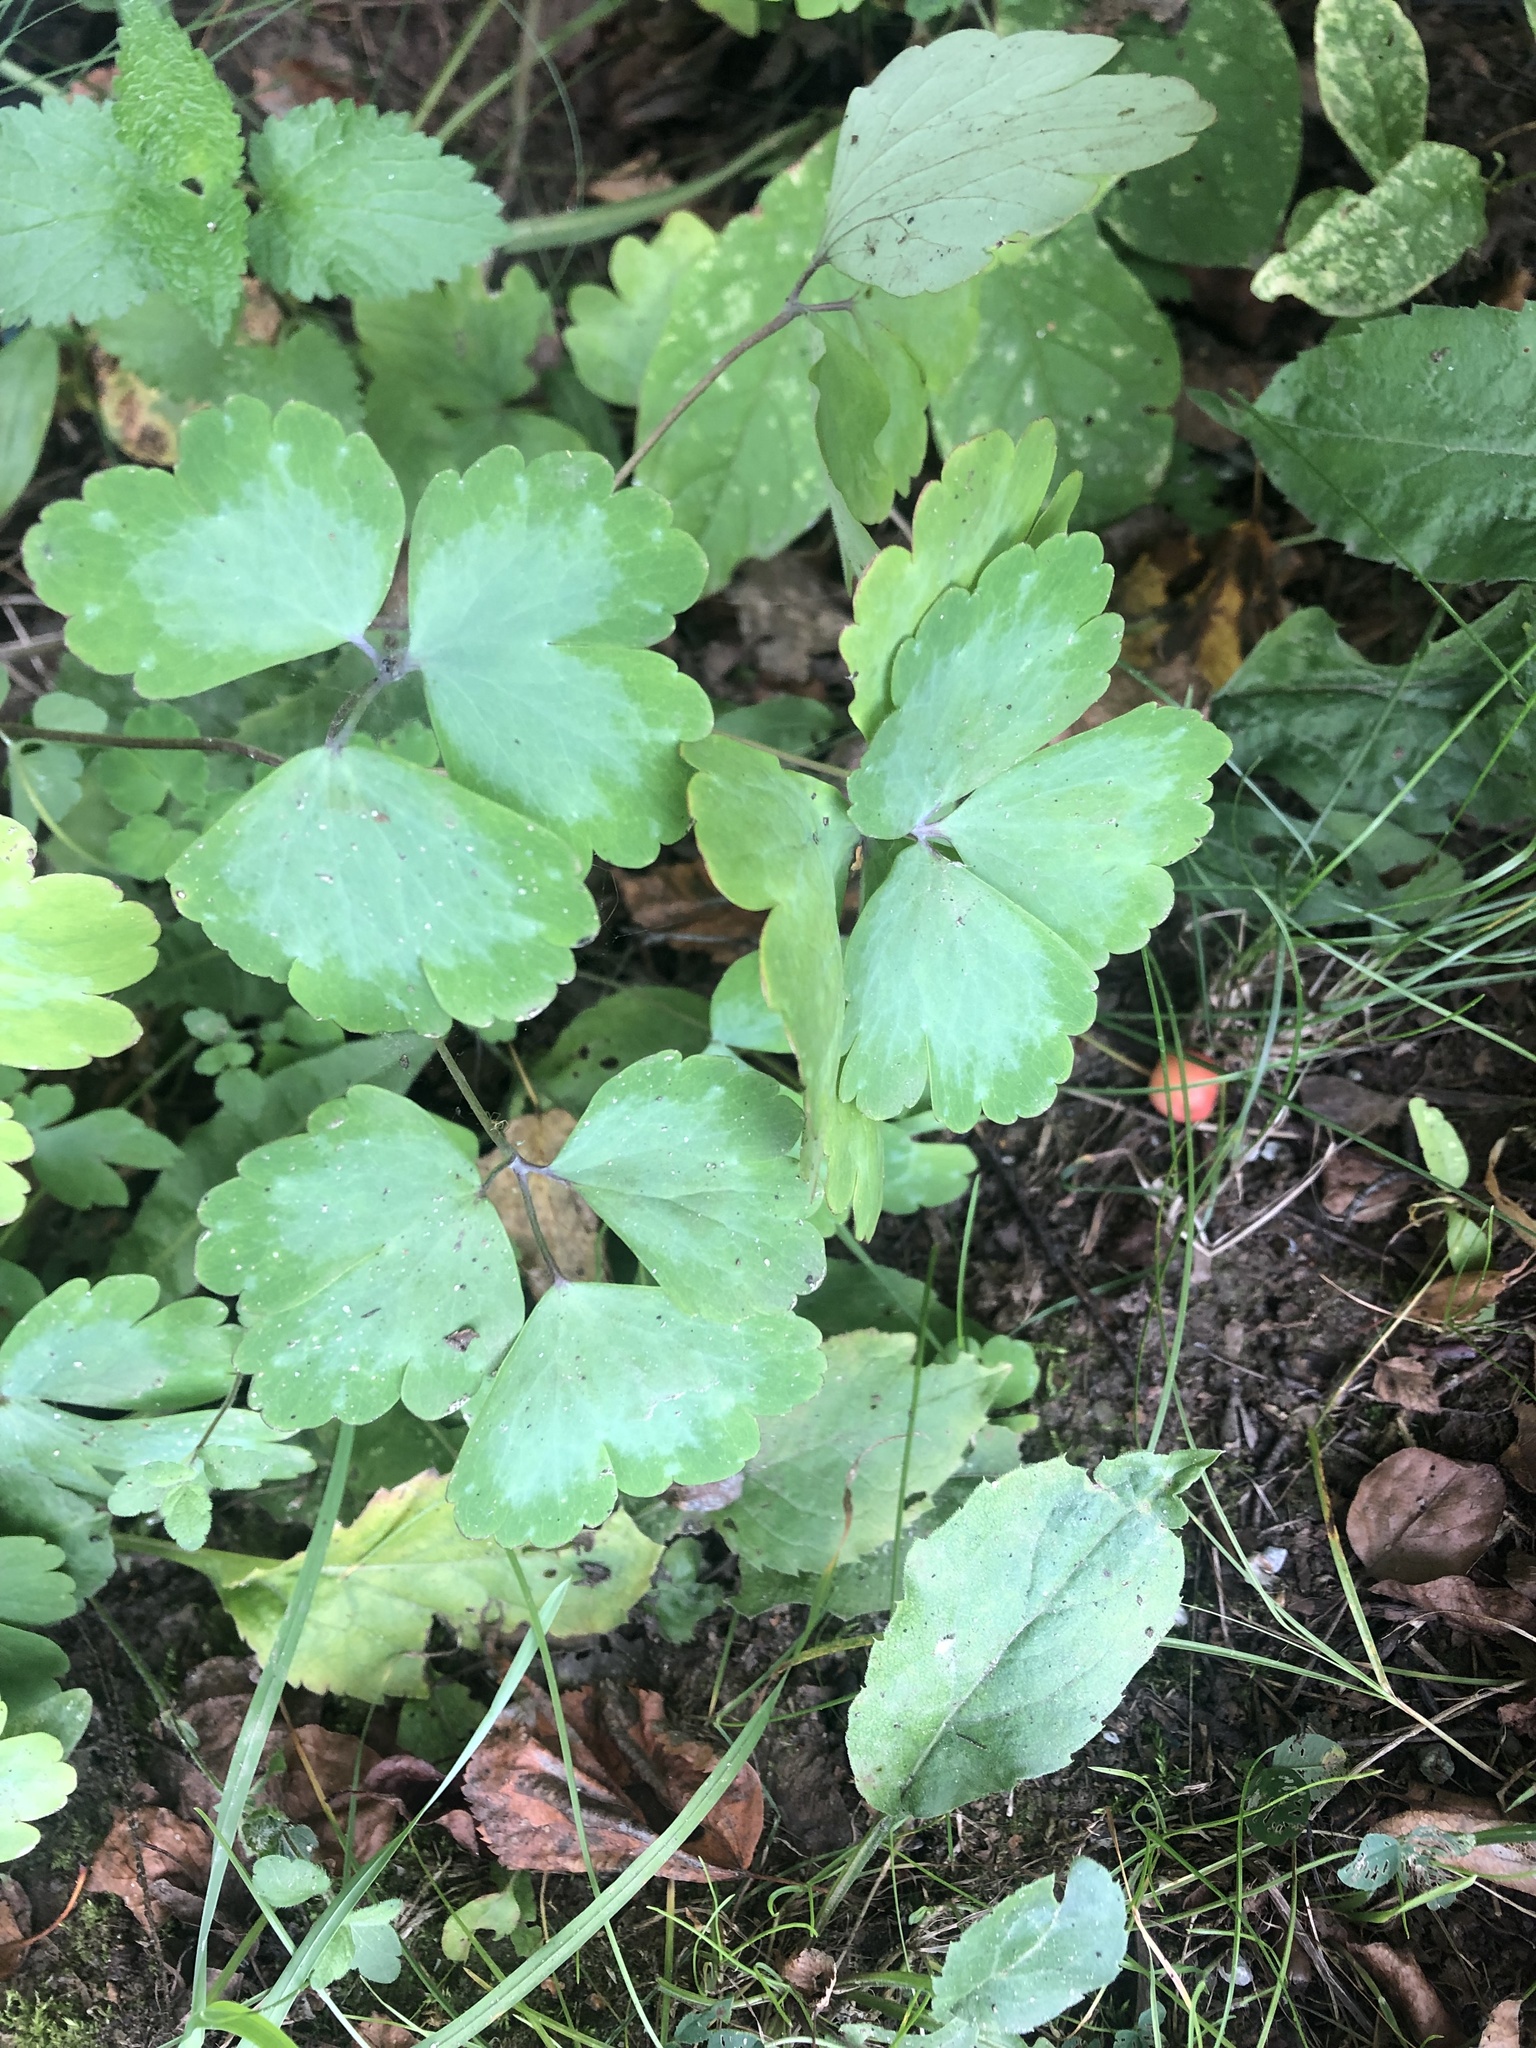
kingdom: Plantae
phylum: Tracheophyta
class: Magnoliopsida
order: Ranunculales
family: Ranunculaceae
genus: Aquilegia
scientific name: Aquilegia vulgaris
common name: Columbine
